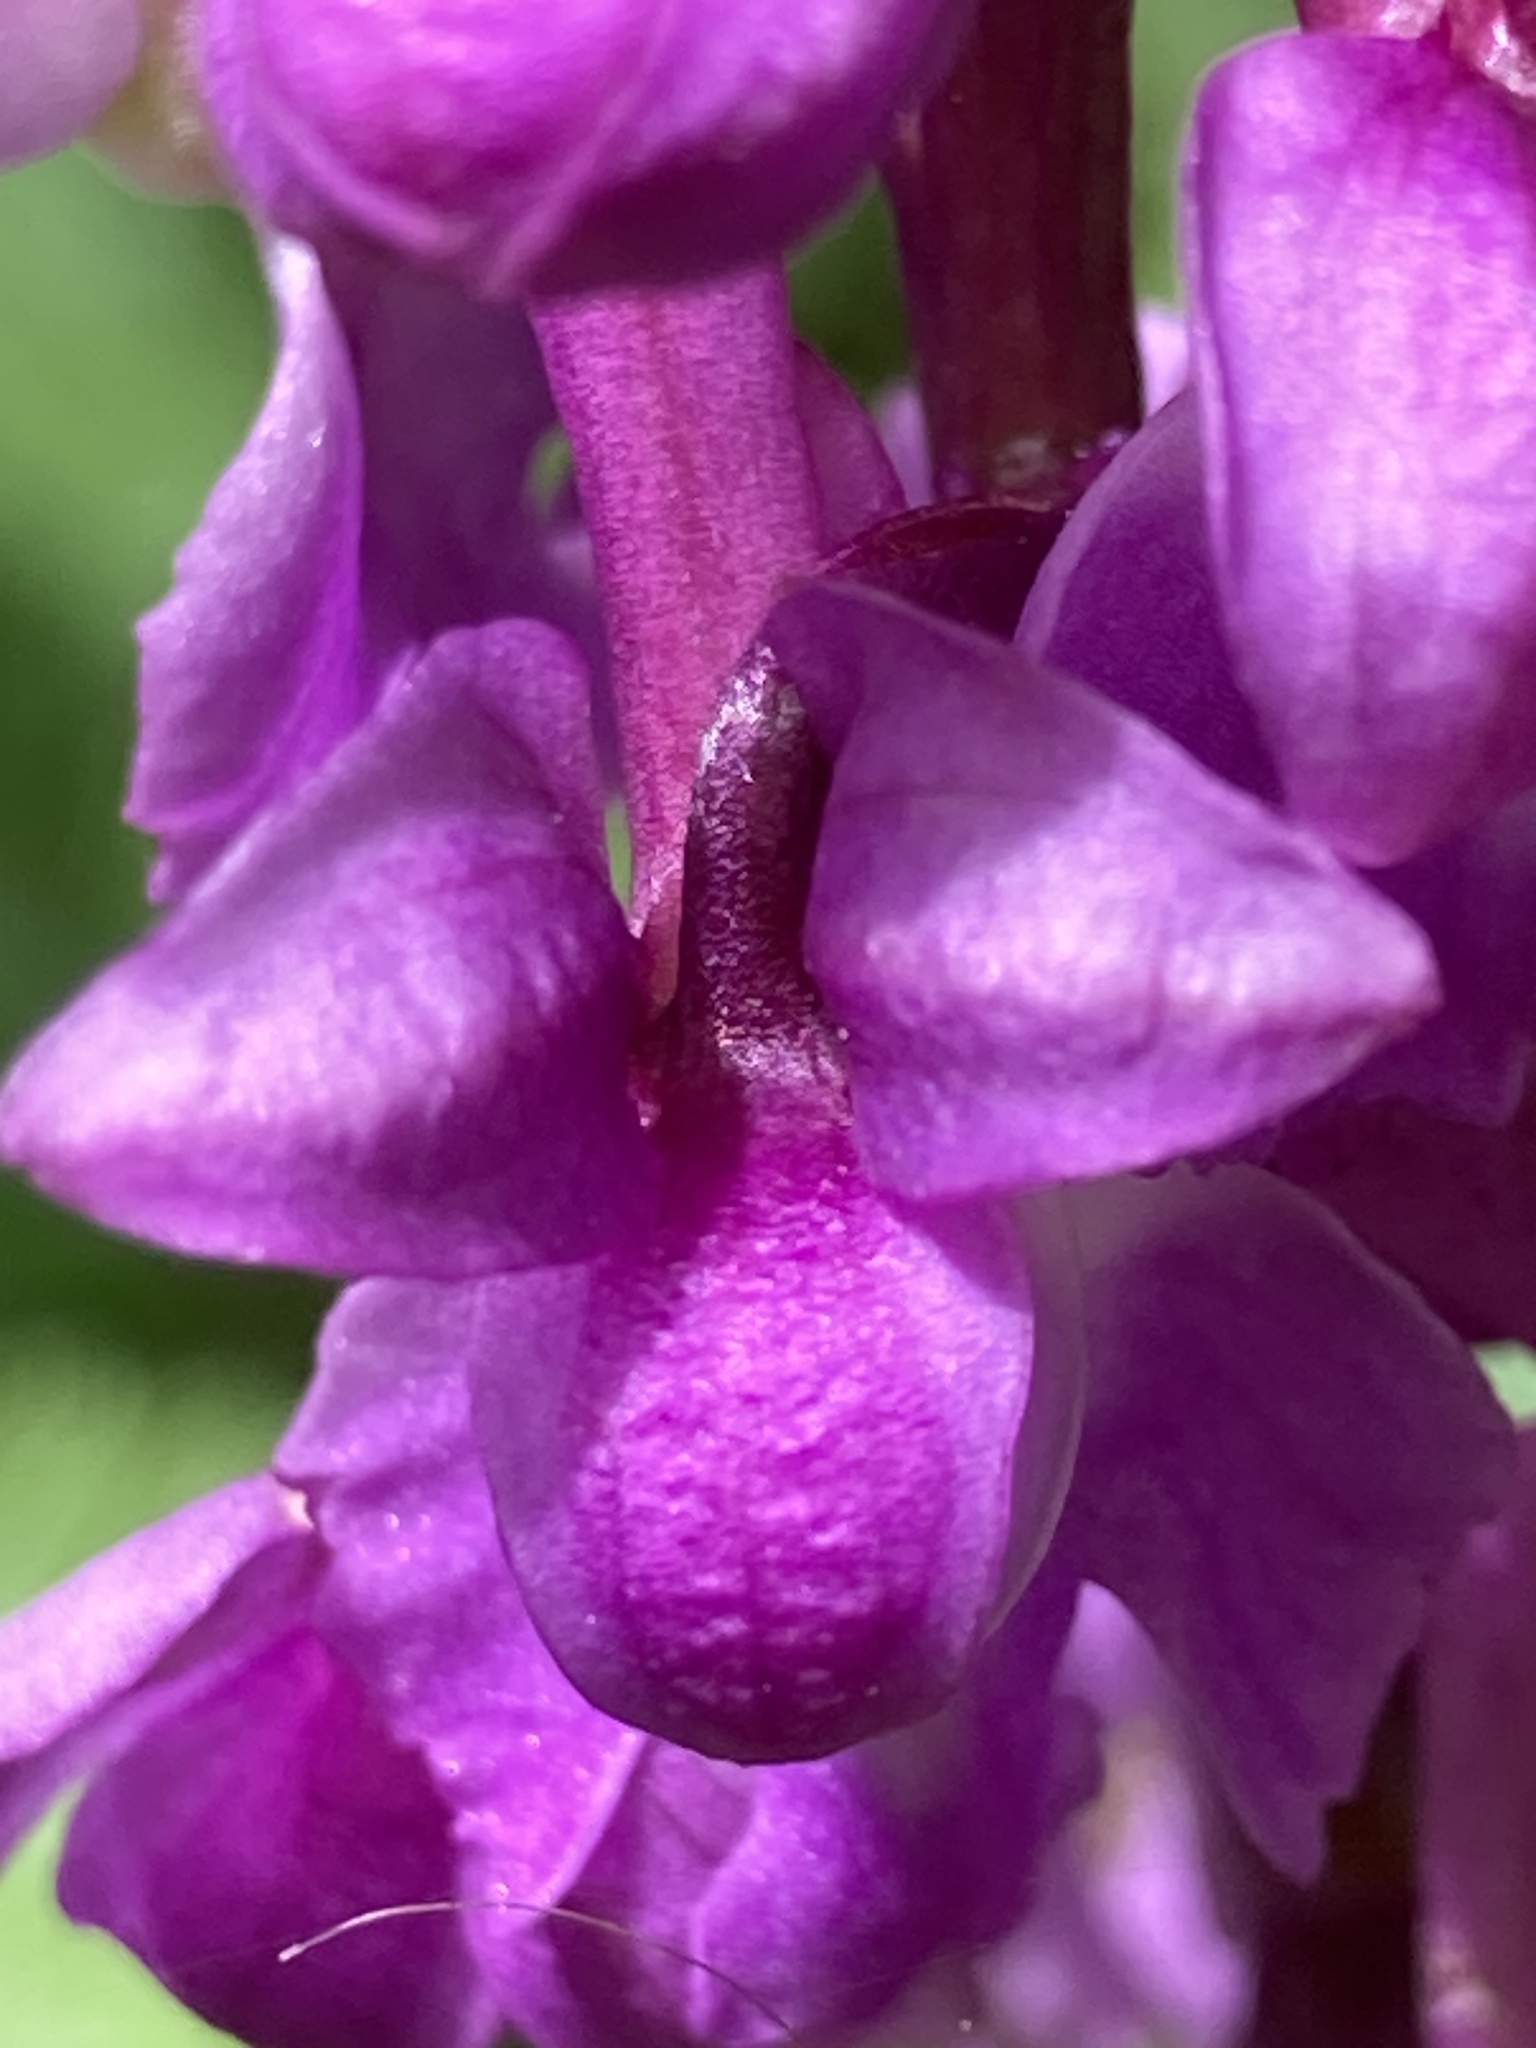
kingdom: Plantae
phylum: Tracheophyta
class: Liliopsida
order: Asparagales
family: Orchidaceae
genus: Orchis
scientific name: Orchis mascula
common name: Early-purple orchid
